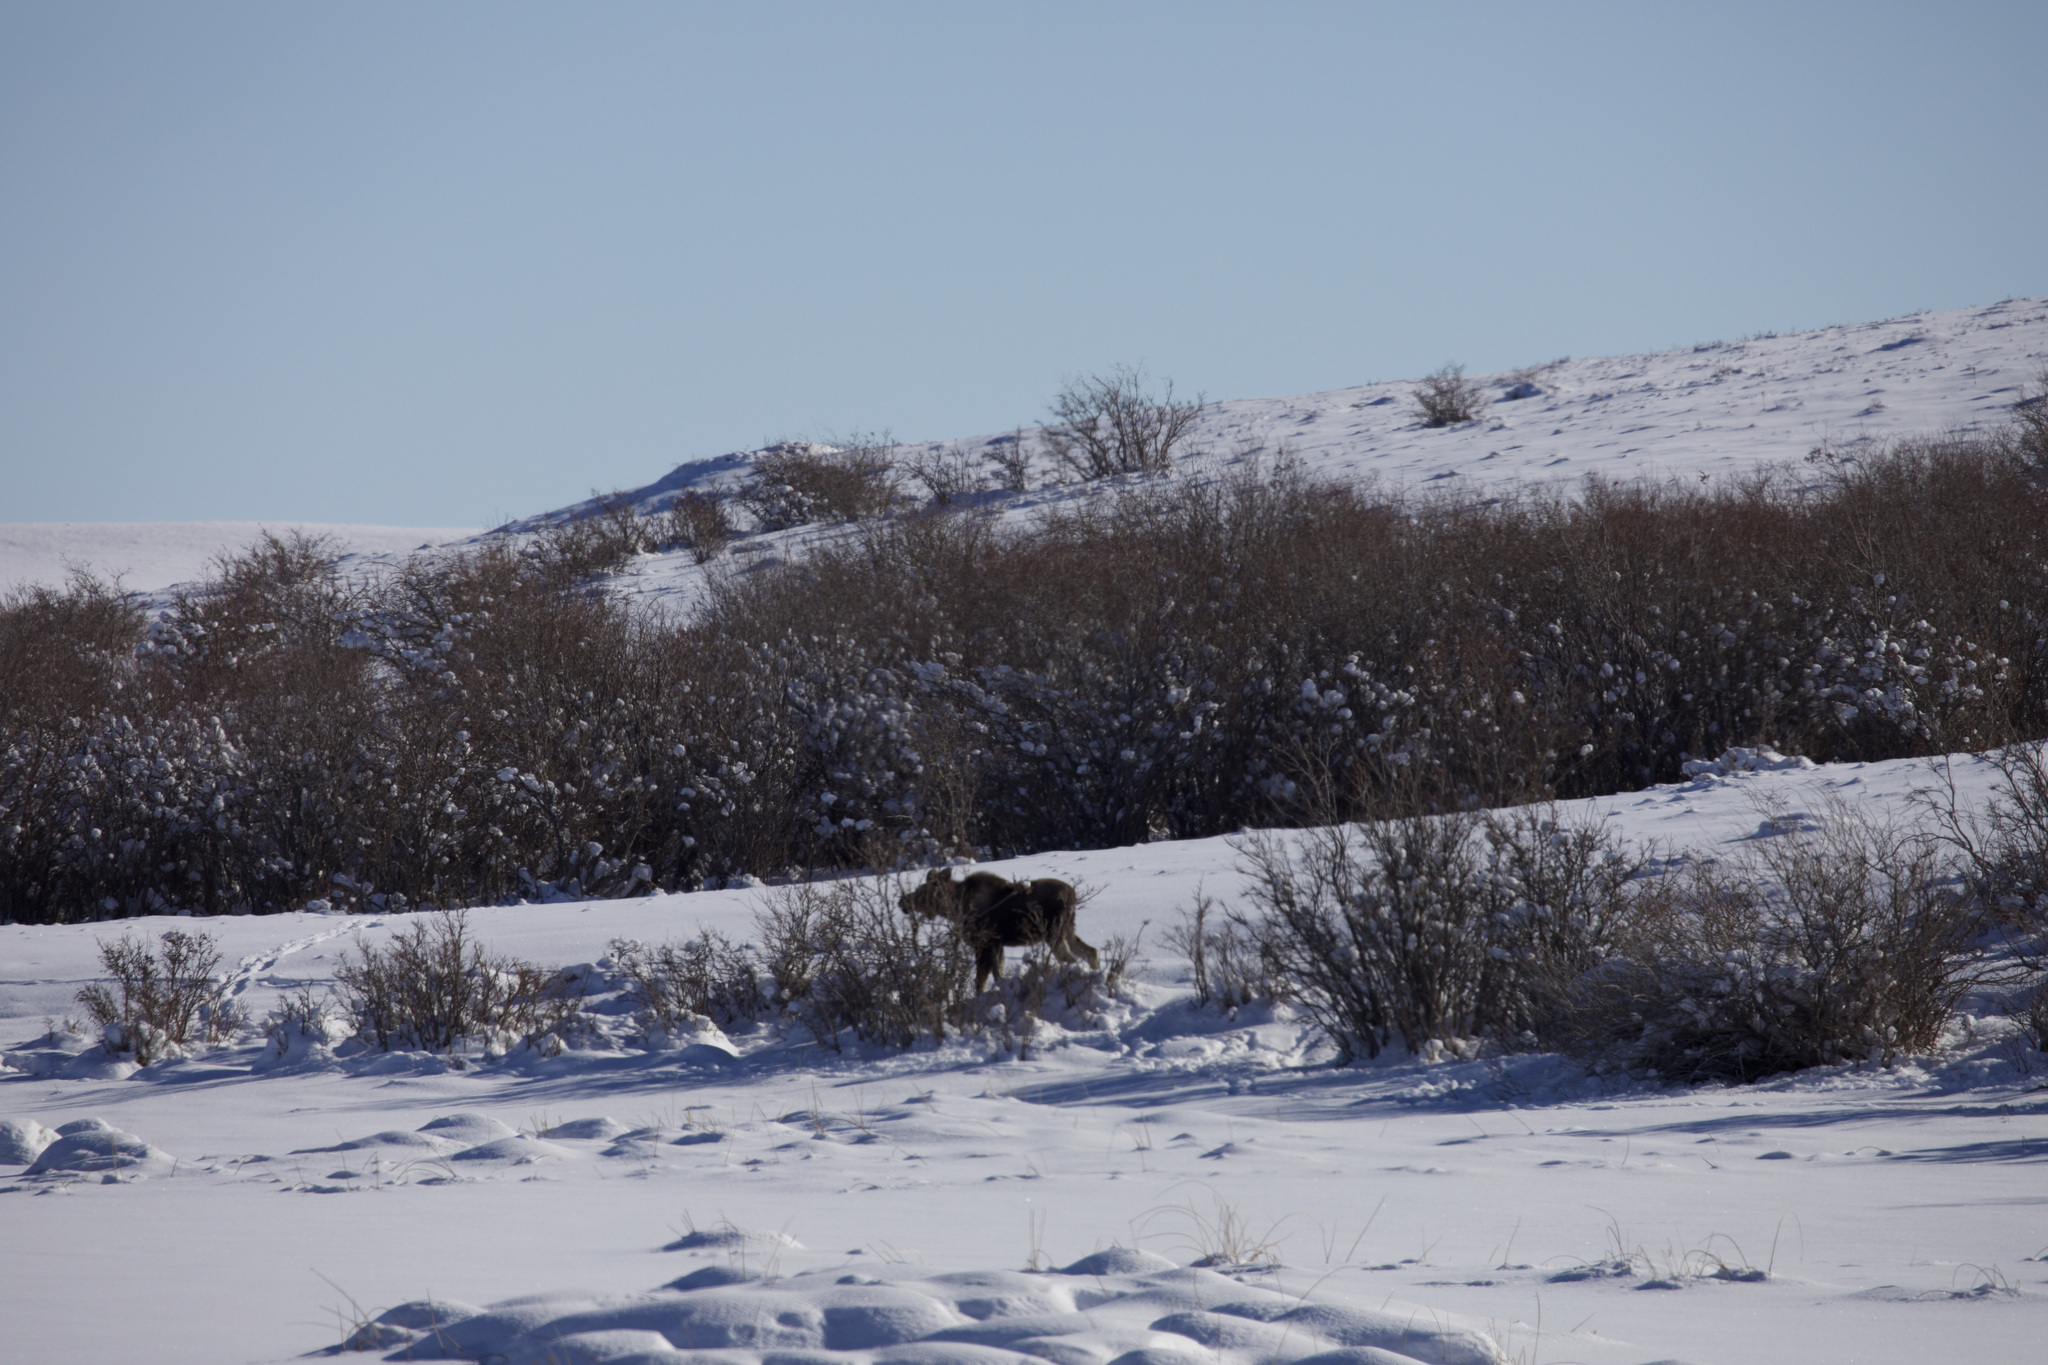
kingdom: Animalia
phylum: Chordata
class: Mammalia
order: Artiodactyla
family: Cervidae
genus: Alces
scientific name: Alces alces
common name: Moose
